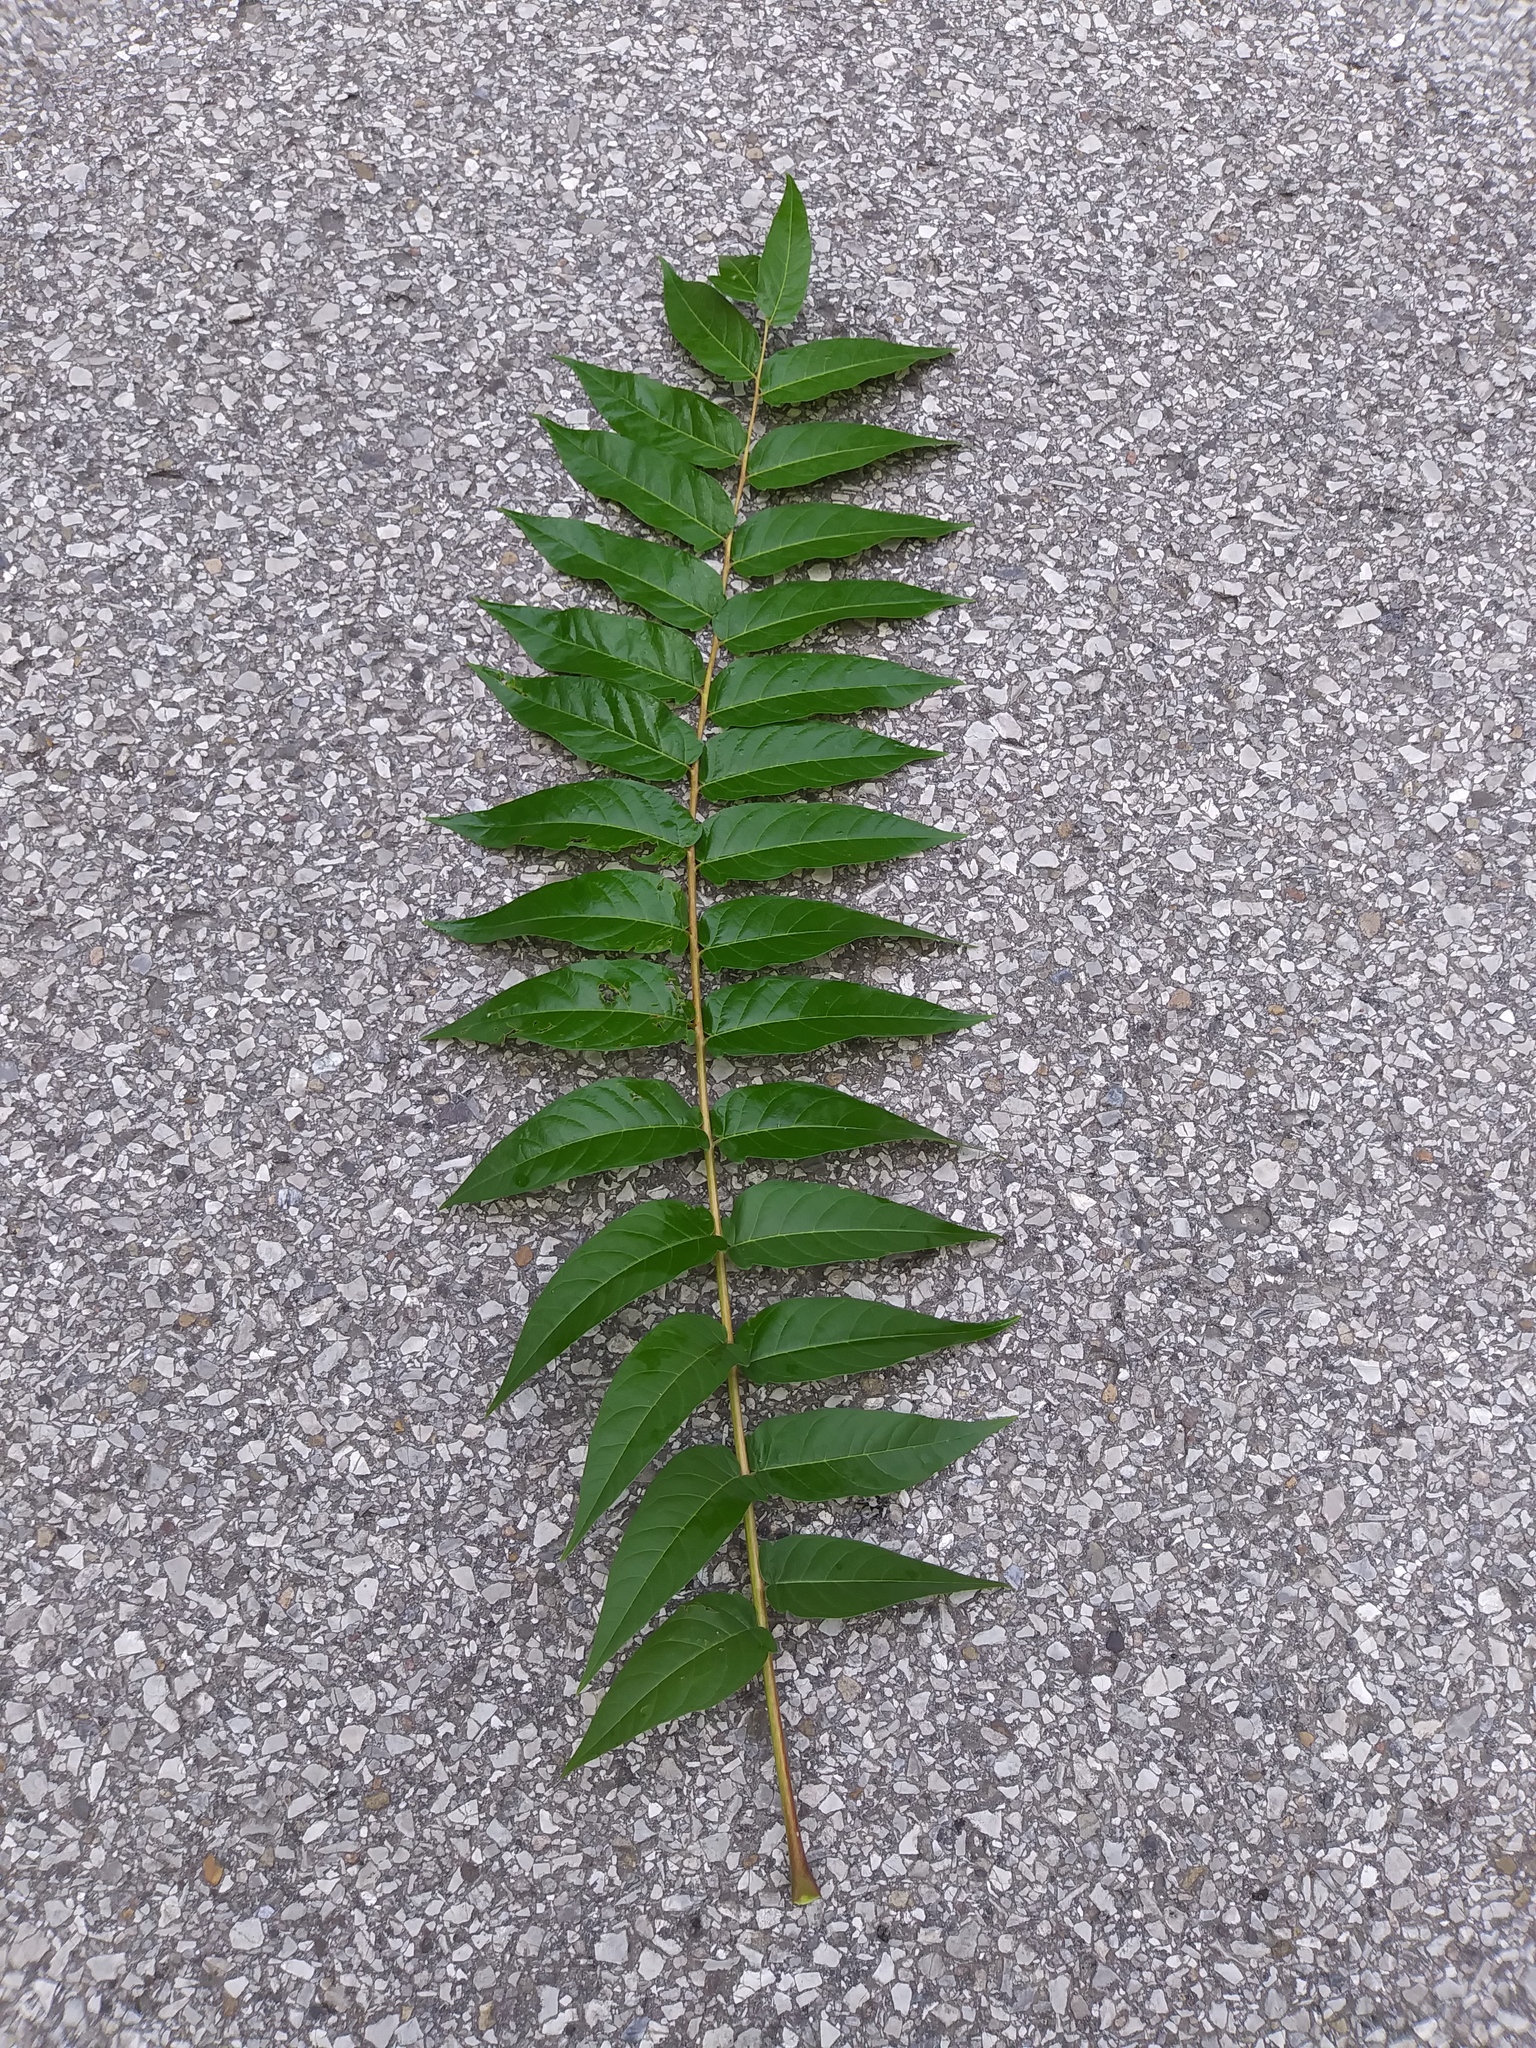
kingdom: Plantae
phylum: Tracheophyta
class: Magnoliopsida
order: Sapindales
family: Simaroubaceae
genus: Ailanthus
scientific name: Ailanthus altissima
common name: Tree-of-heaven
